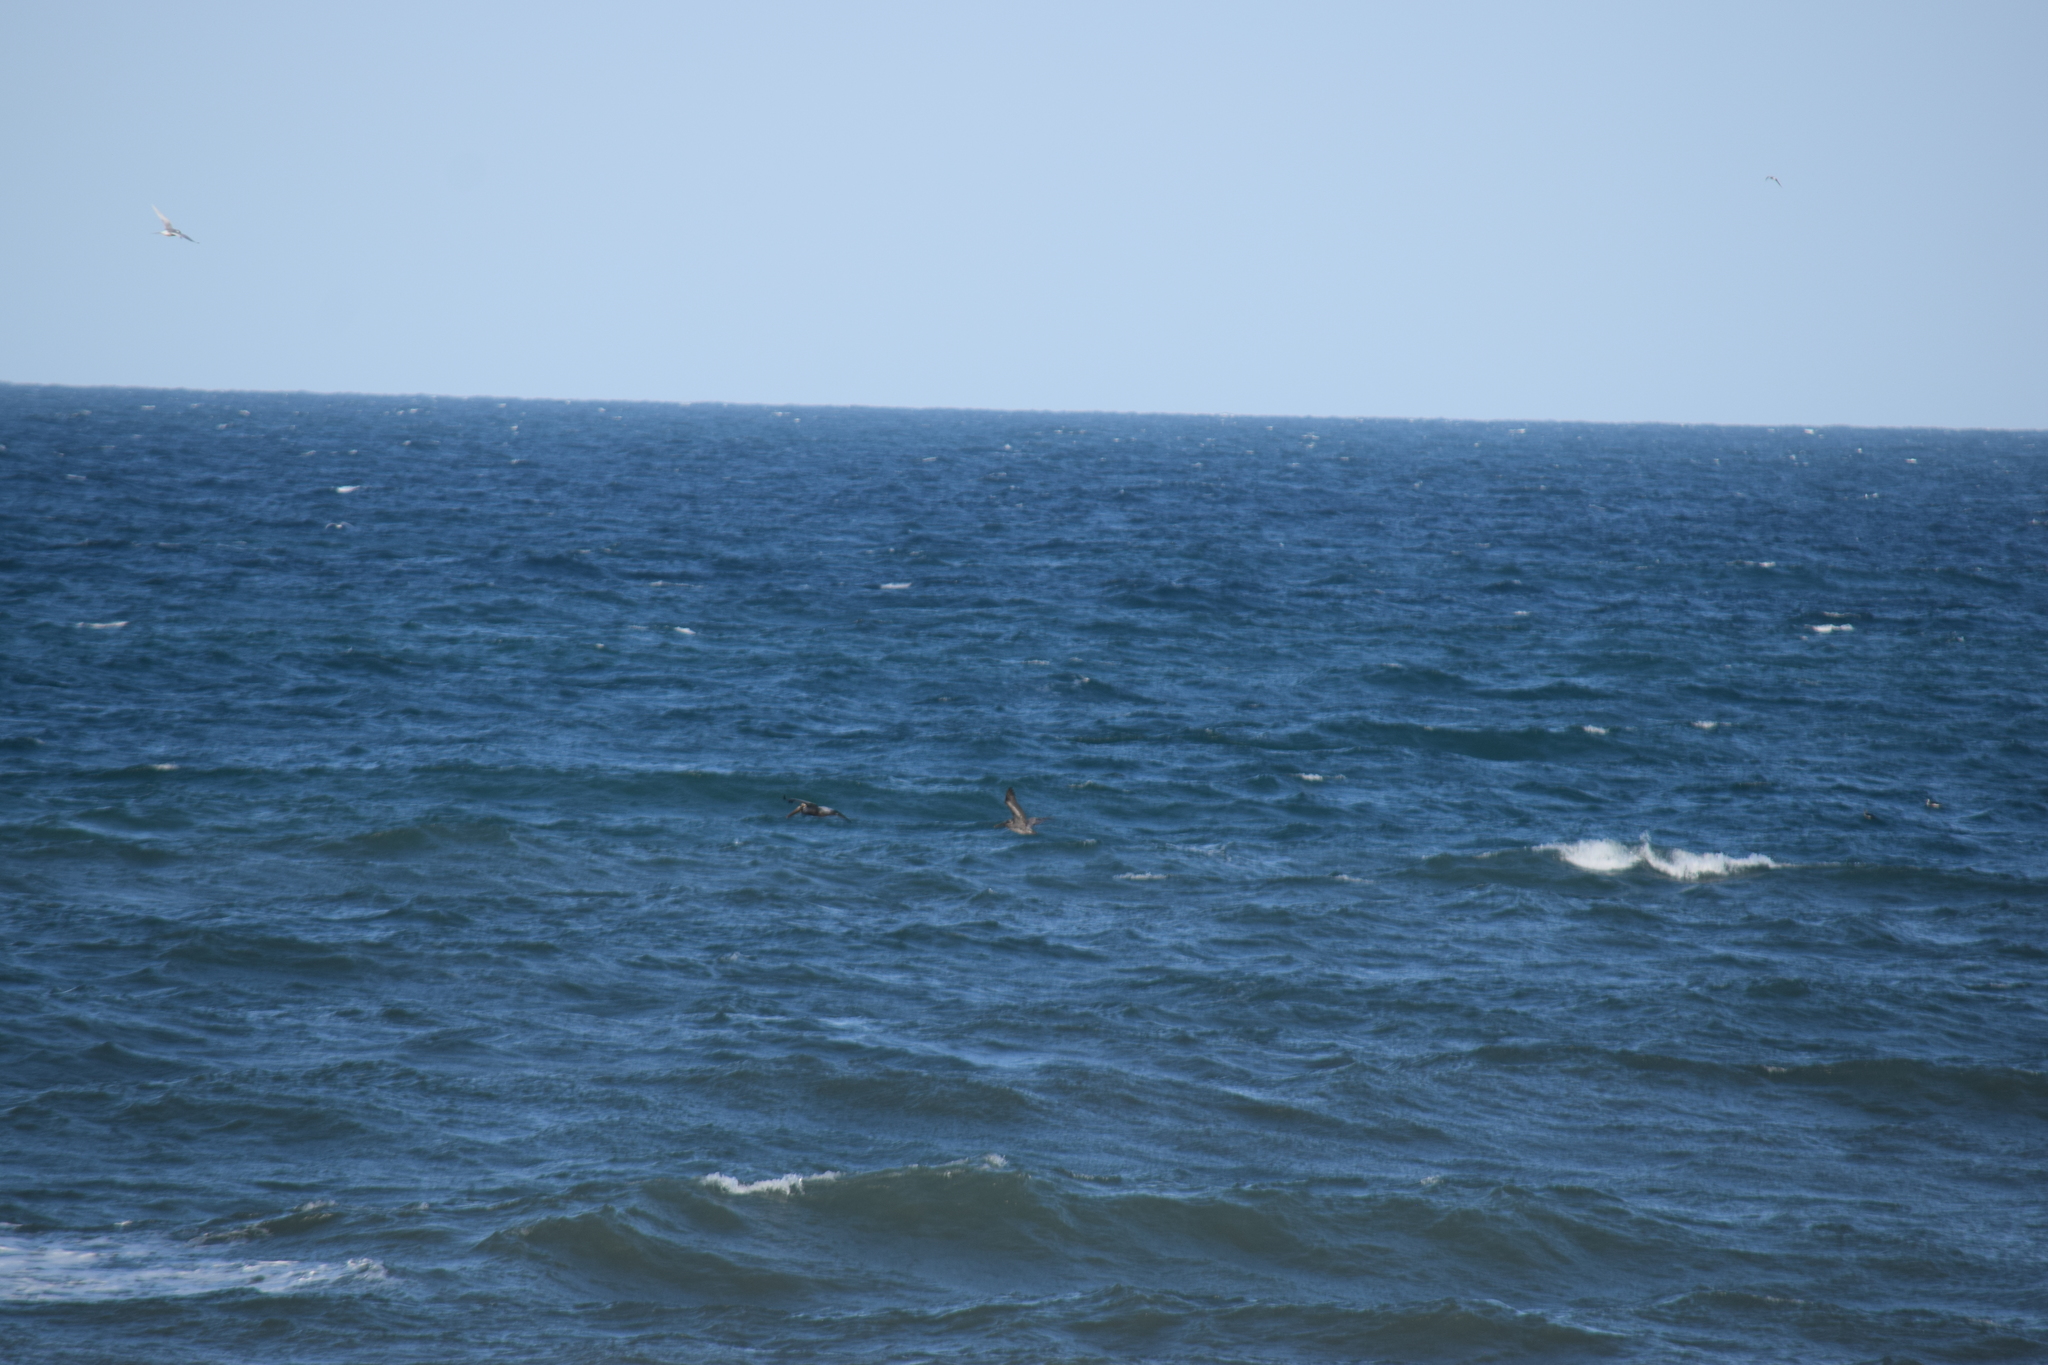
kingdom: Animalia
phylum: Chordata
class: Aves
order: Pelecaniformes
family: Pelecanidae
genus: Pelecanus
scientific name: Pelecanus occidentalis
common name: Brown pelican
